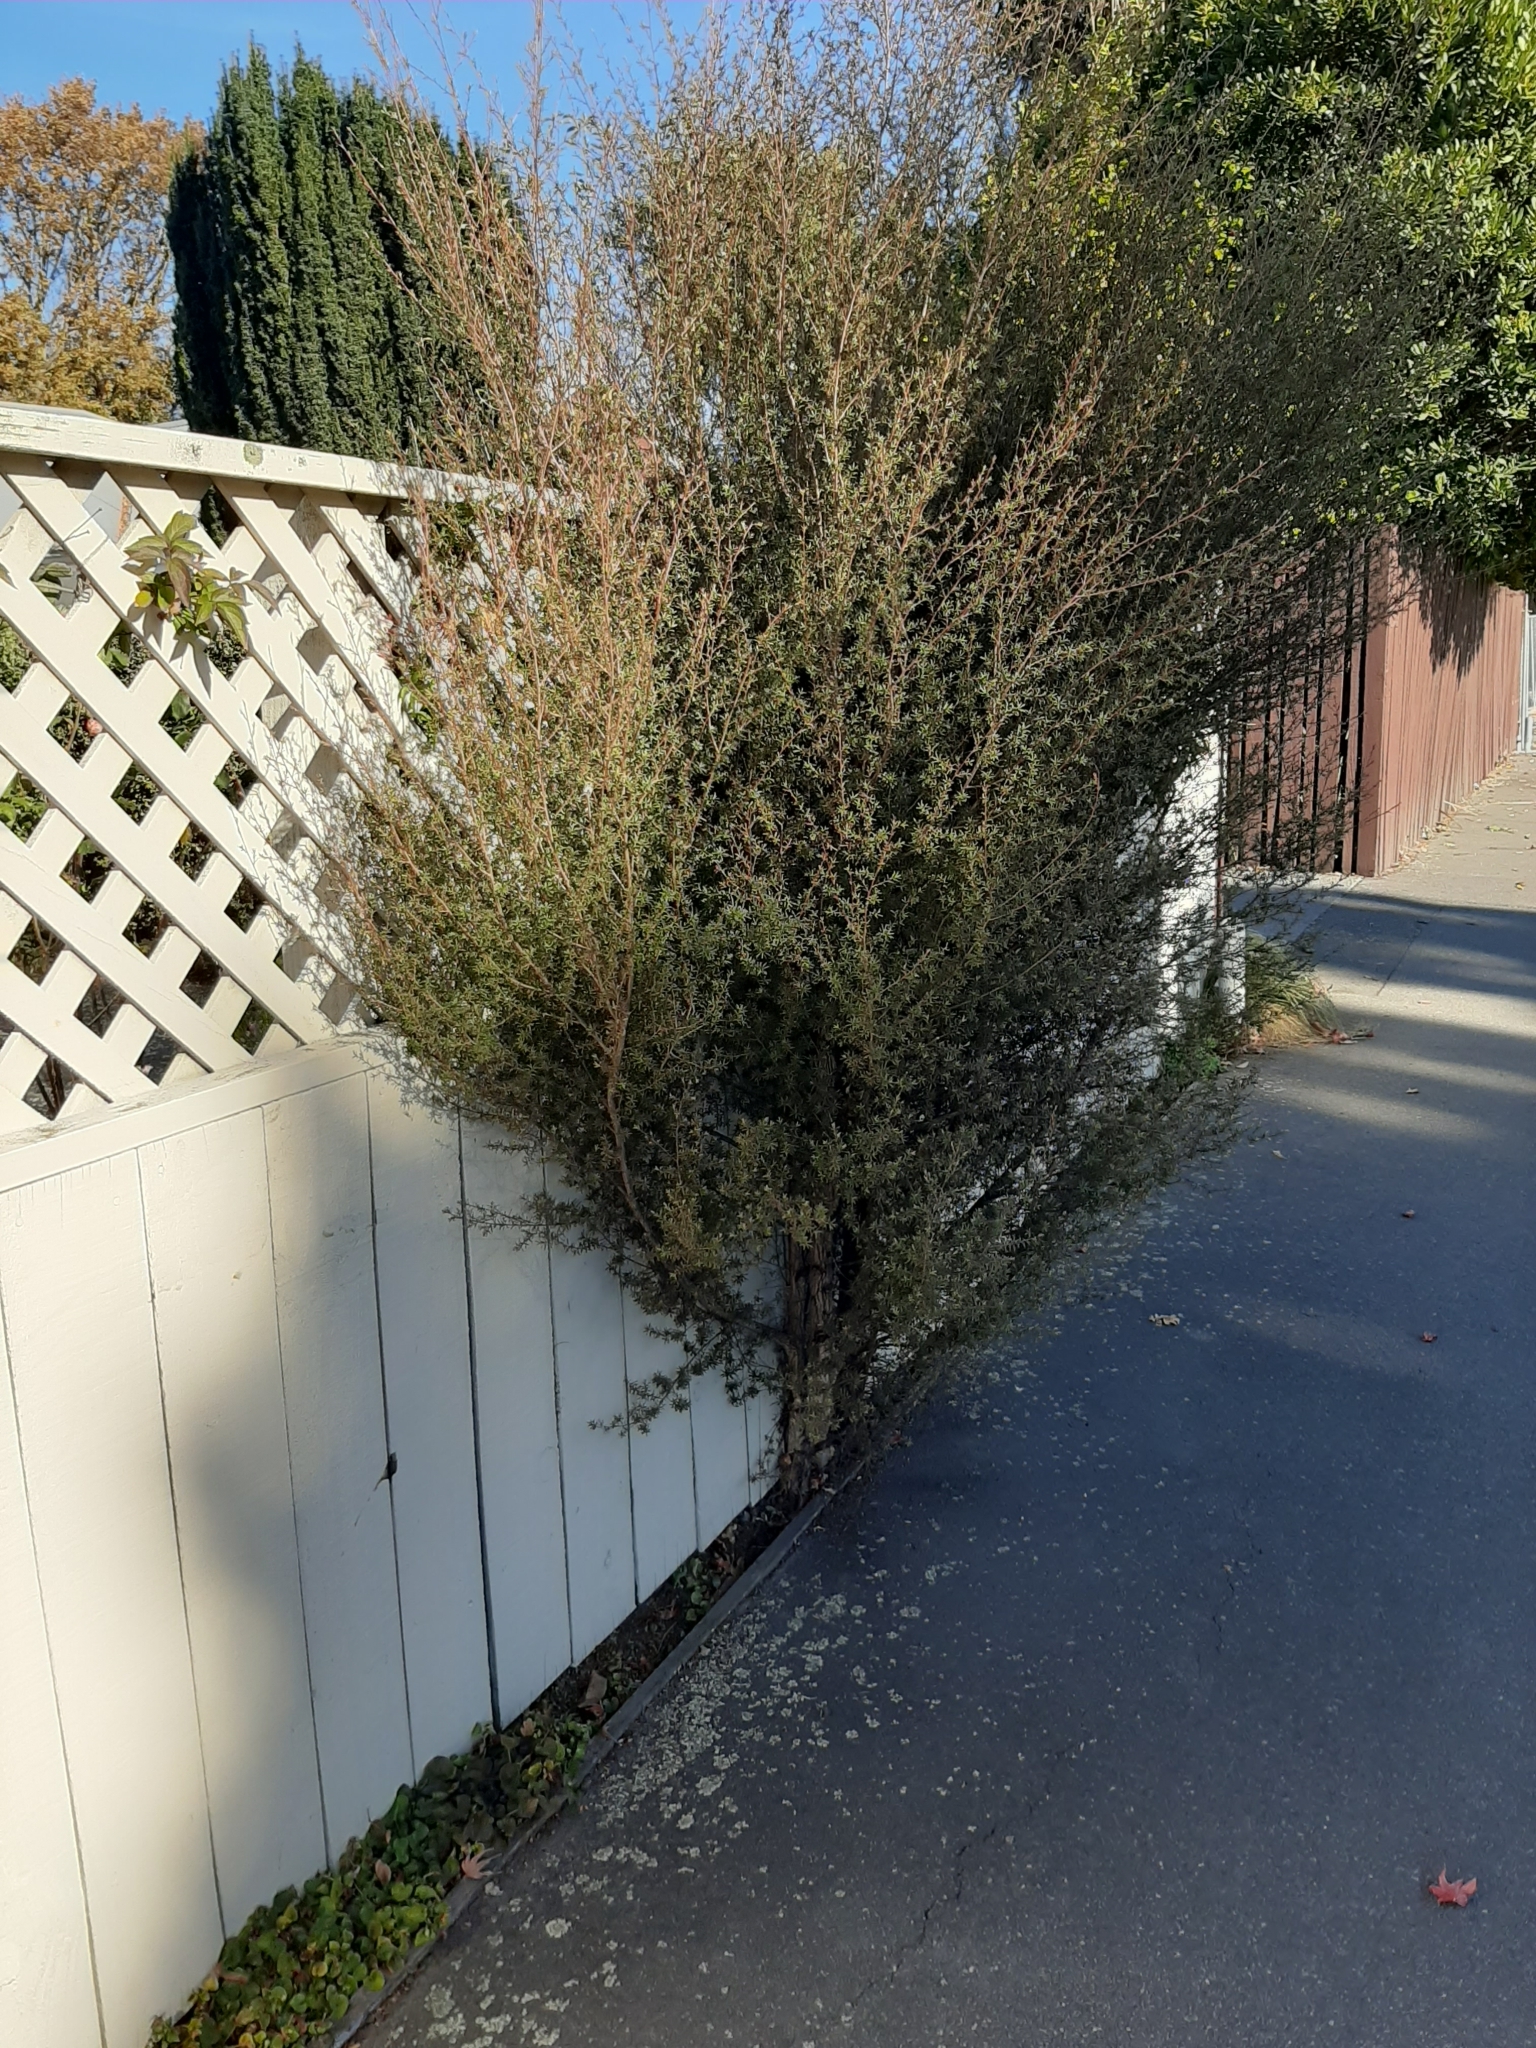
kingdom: Plantae
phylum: Tracheophyta
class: Magnoliopsida
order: Myrtales
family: Myrtaceae
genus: Kunzea
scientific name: Kunzea robusta
